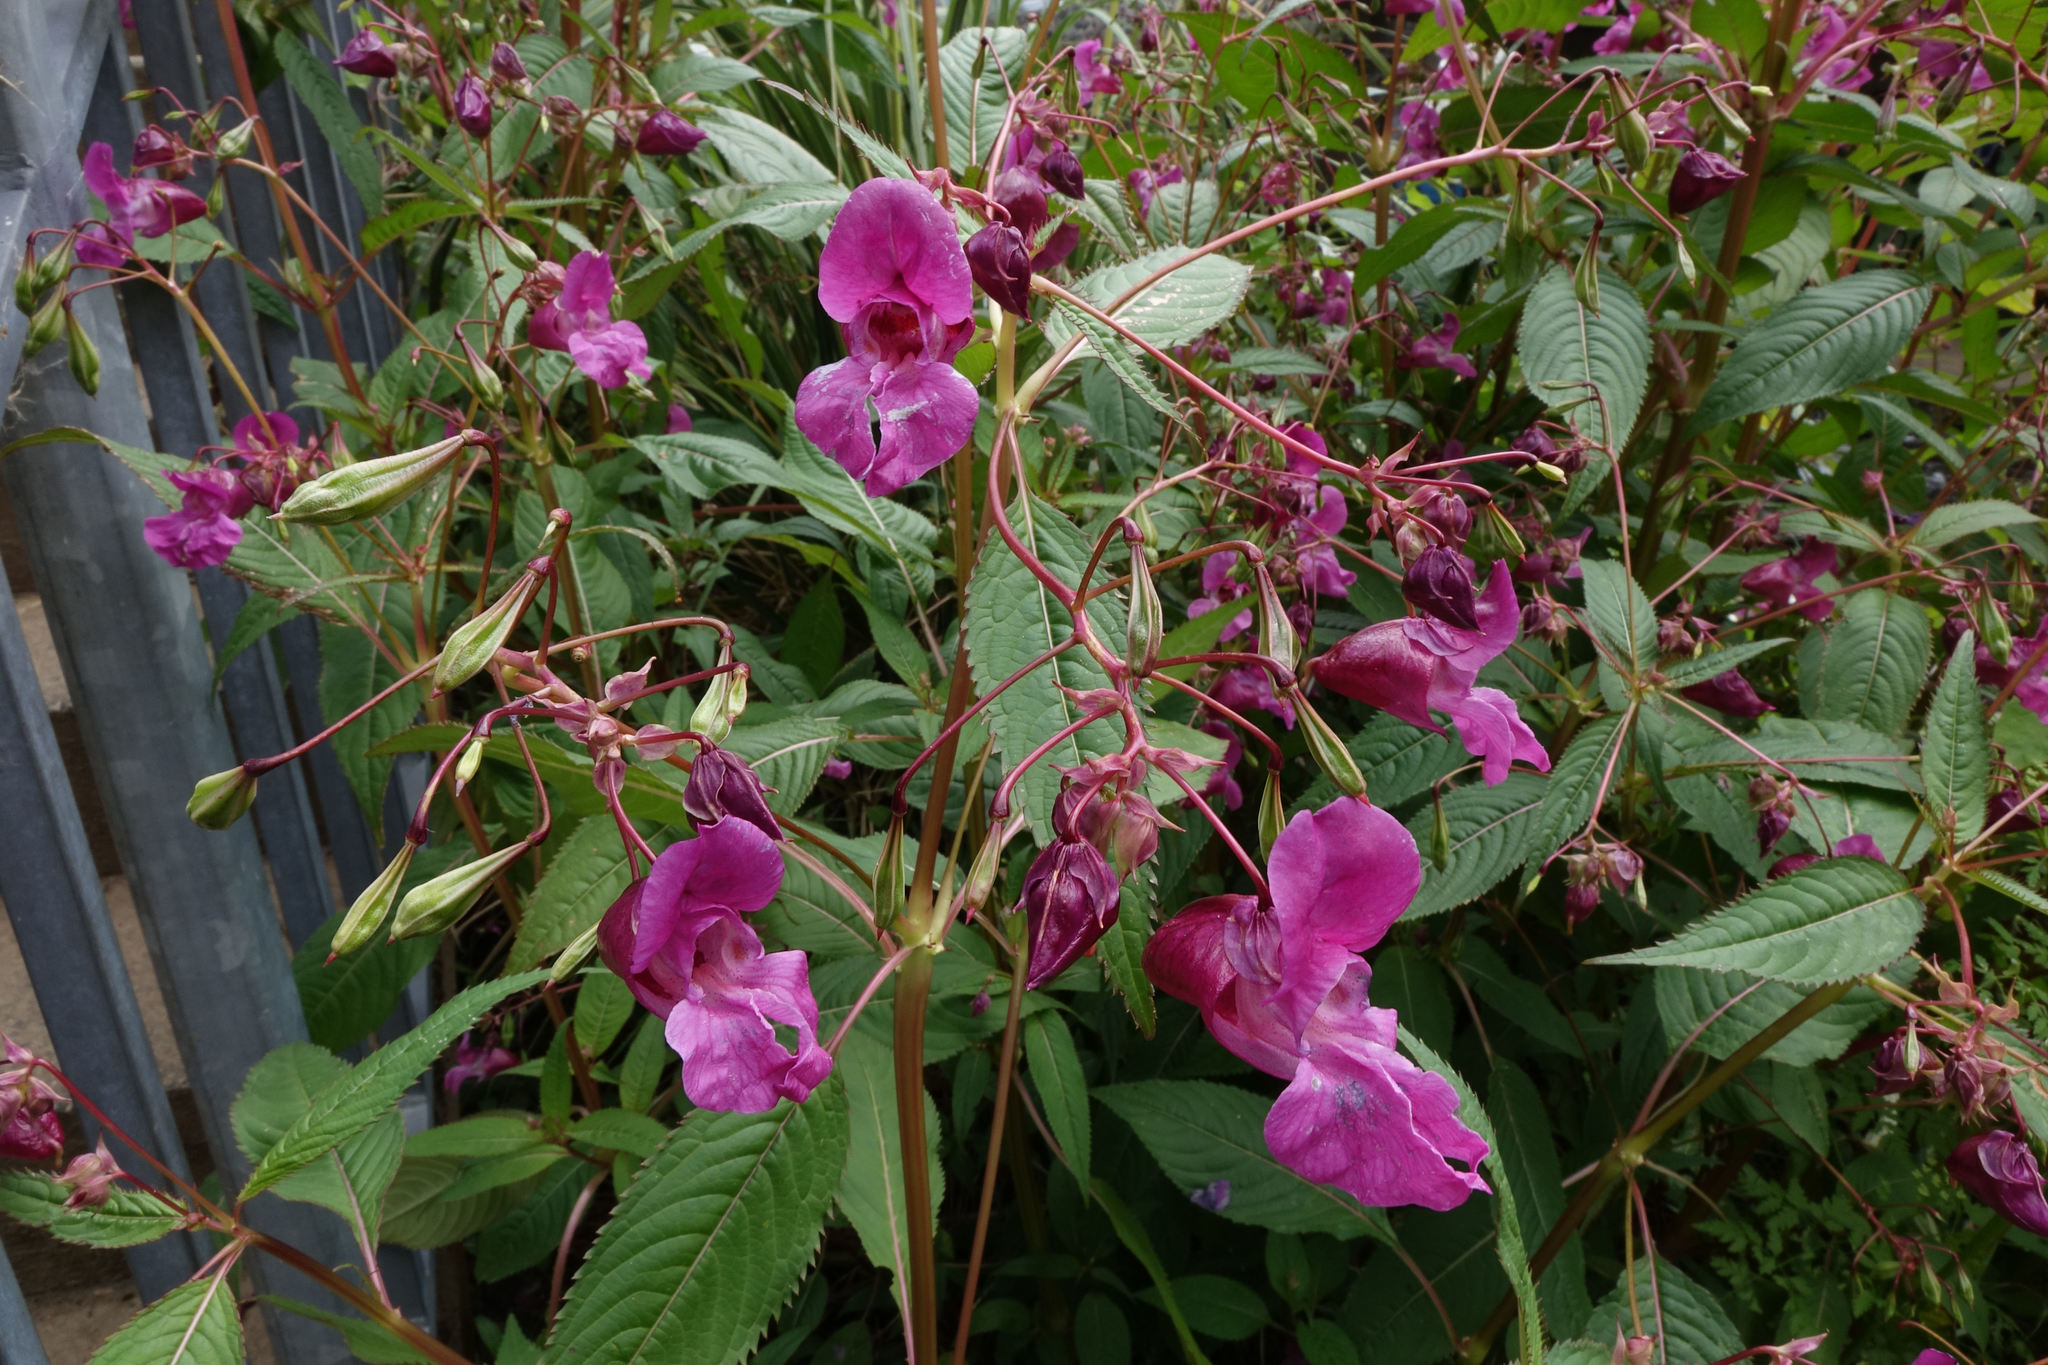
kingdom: Plantae
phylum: Tracheophyta
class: Magnoliopsida
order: Ericales
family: Balsaminaceae
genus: Impatiens
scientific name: Impatiens glandulifera
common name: Himalayan balsam
